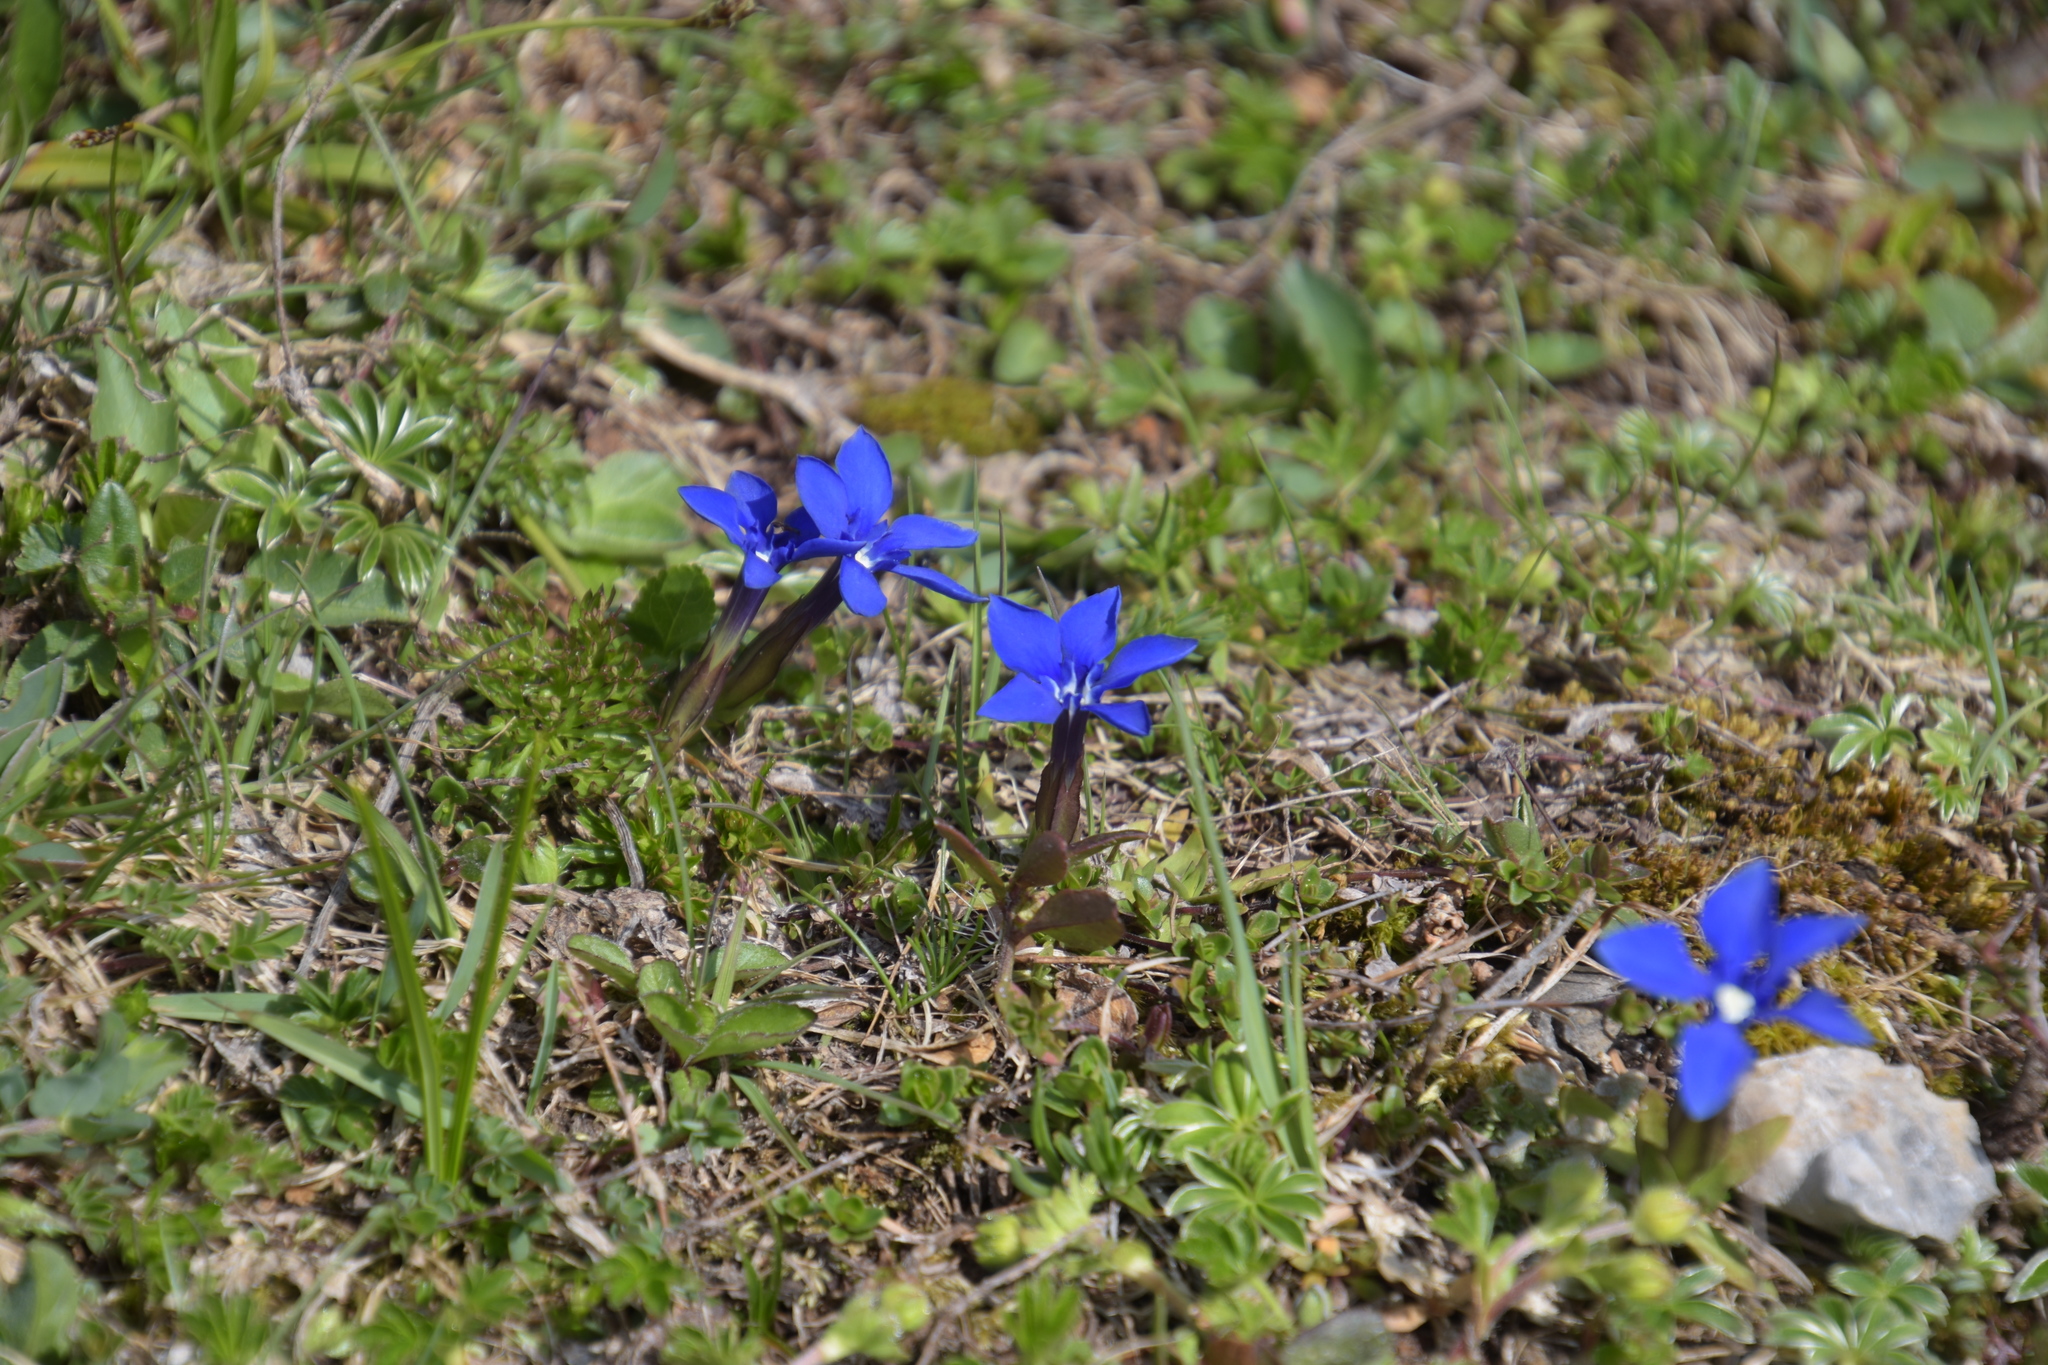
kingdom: Plantae
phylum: Tracheophyta
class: Magnoliopsida
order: Gentianales
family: Gentianaceae
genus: Gentiana
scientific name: Gentiana verna
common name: Spring gentian
